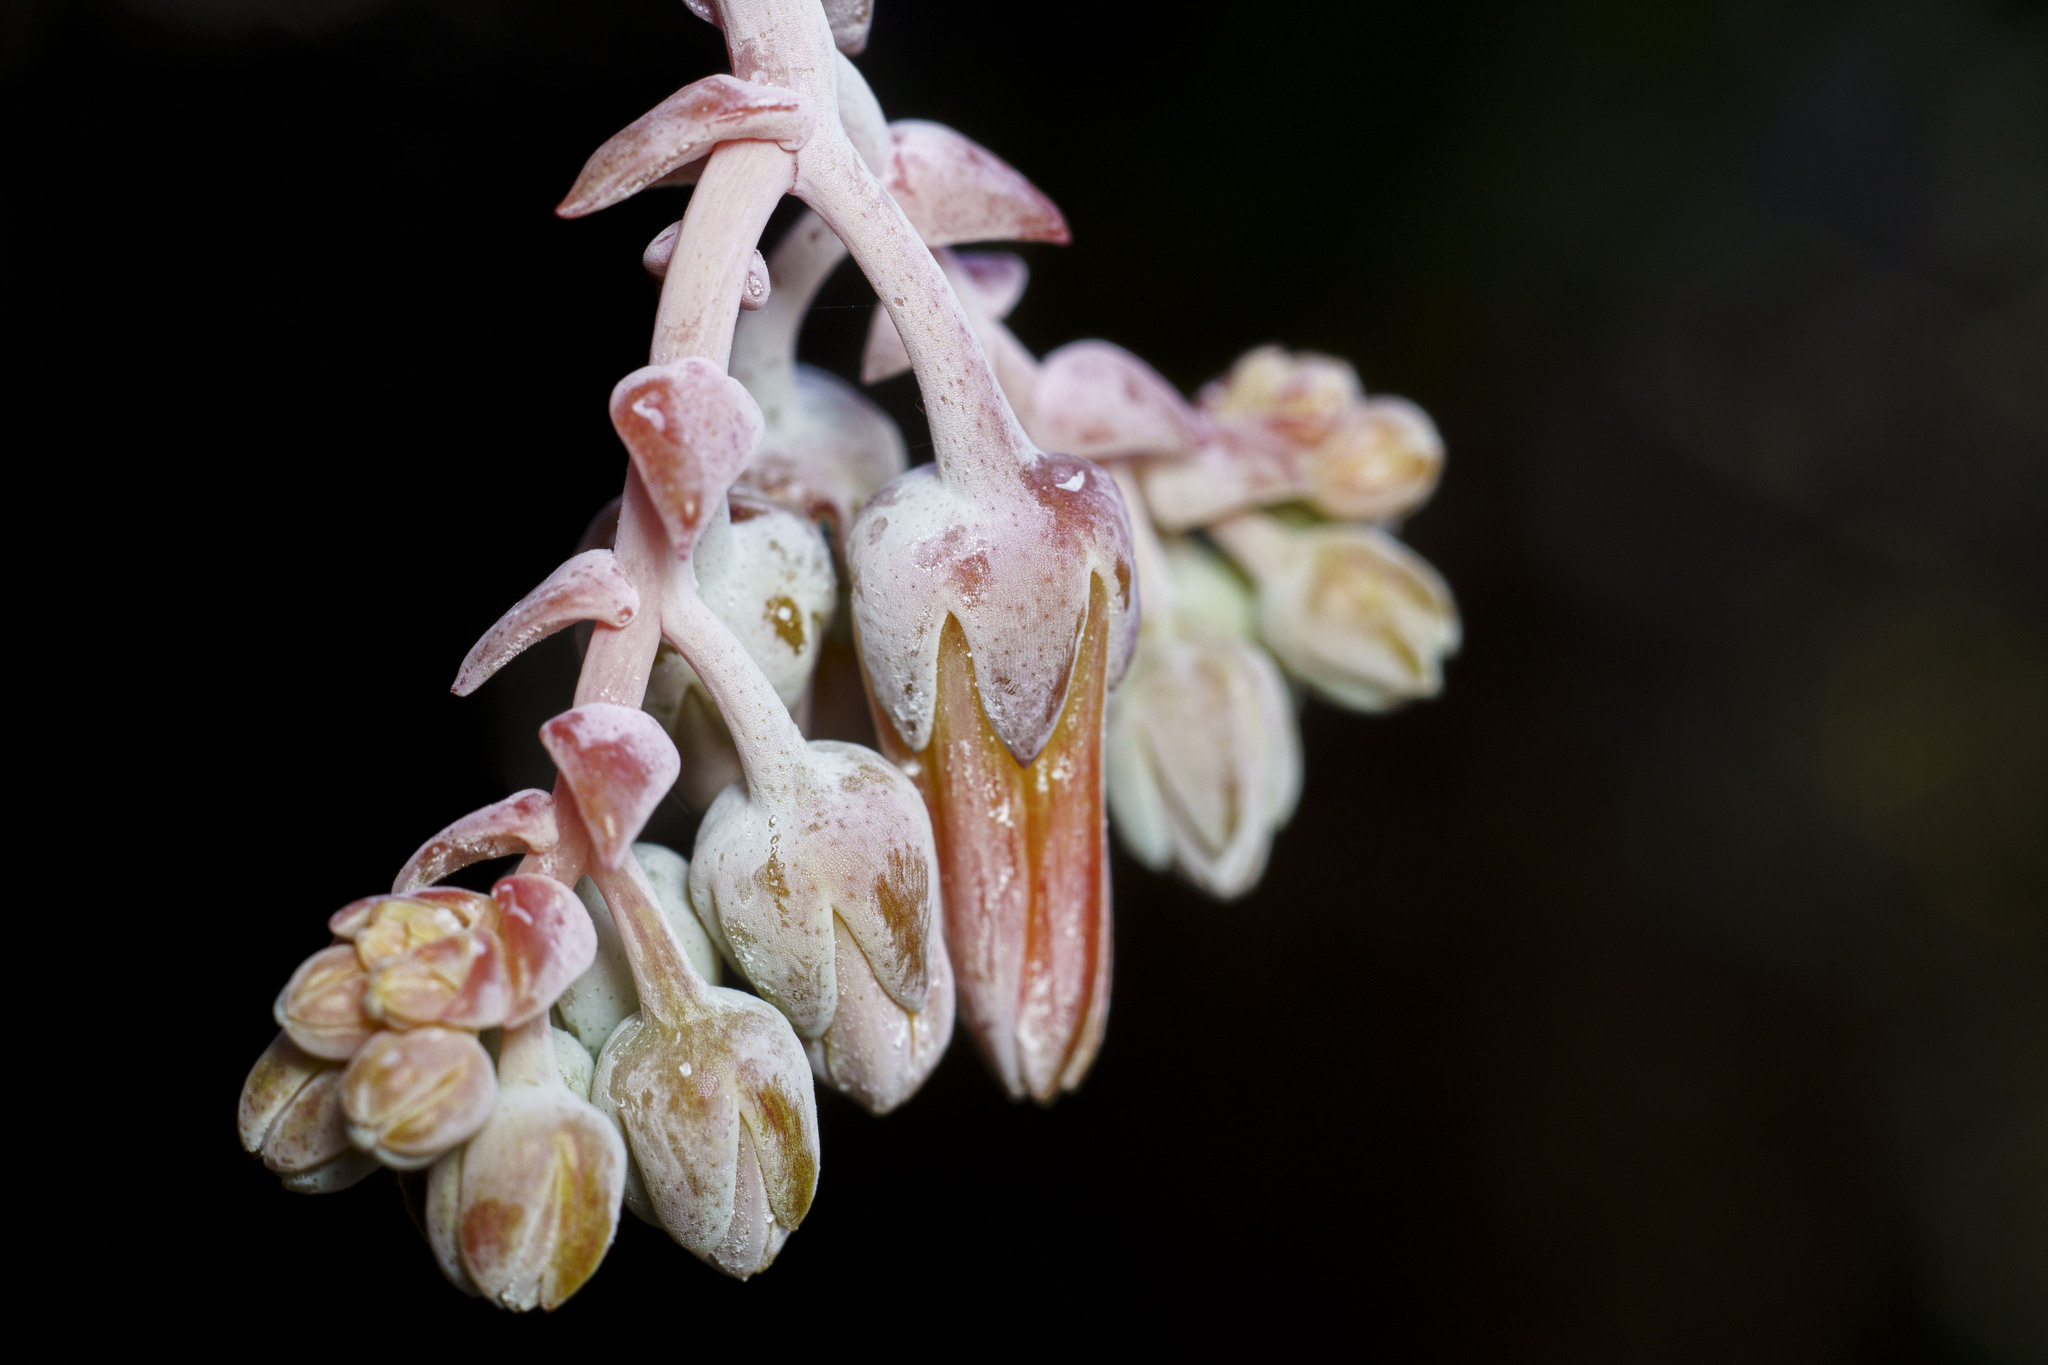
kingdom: Plantae
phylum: Tracheophyta
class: Magnoliopsida
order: Saxifragales
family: Crassulaceae
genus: Dudleya
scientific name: Dudleya rigida
